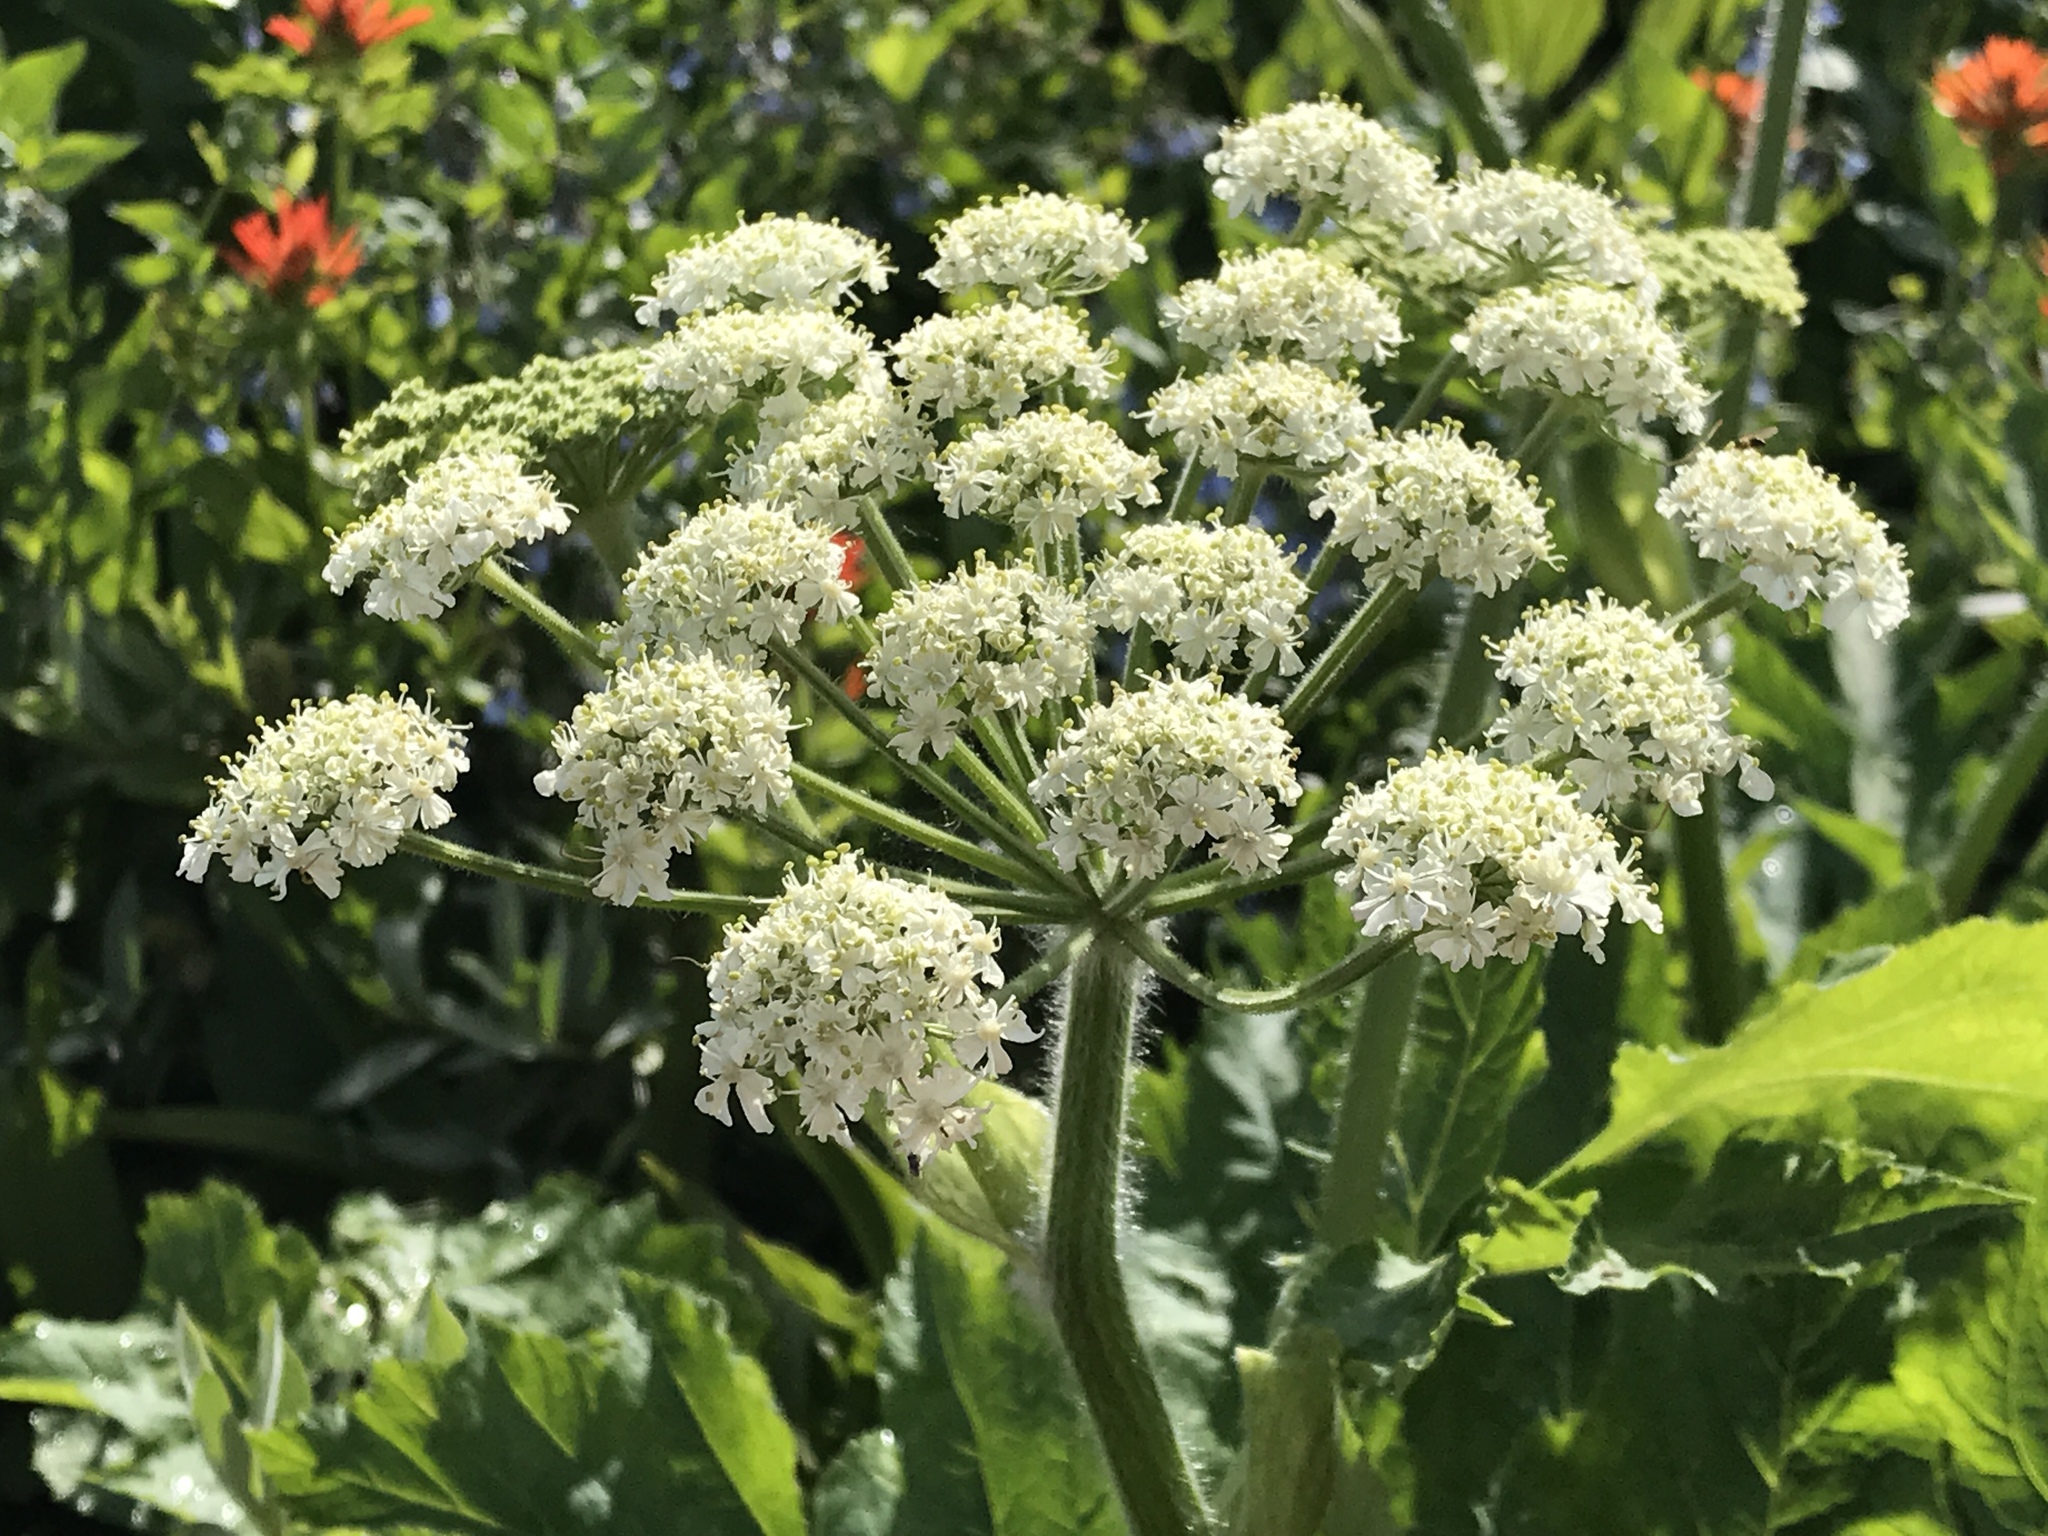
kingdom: Plantae
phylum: Tracheophyta
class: Magnoliopsida
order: Apiales
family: Apiaceae
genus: Heracleum
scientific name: Heracleum maximum
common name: American cow parsnip
